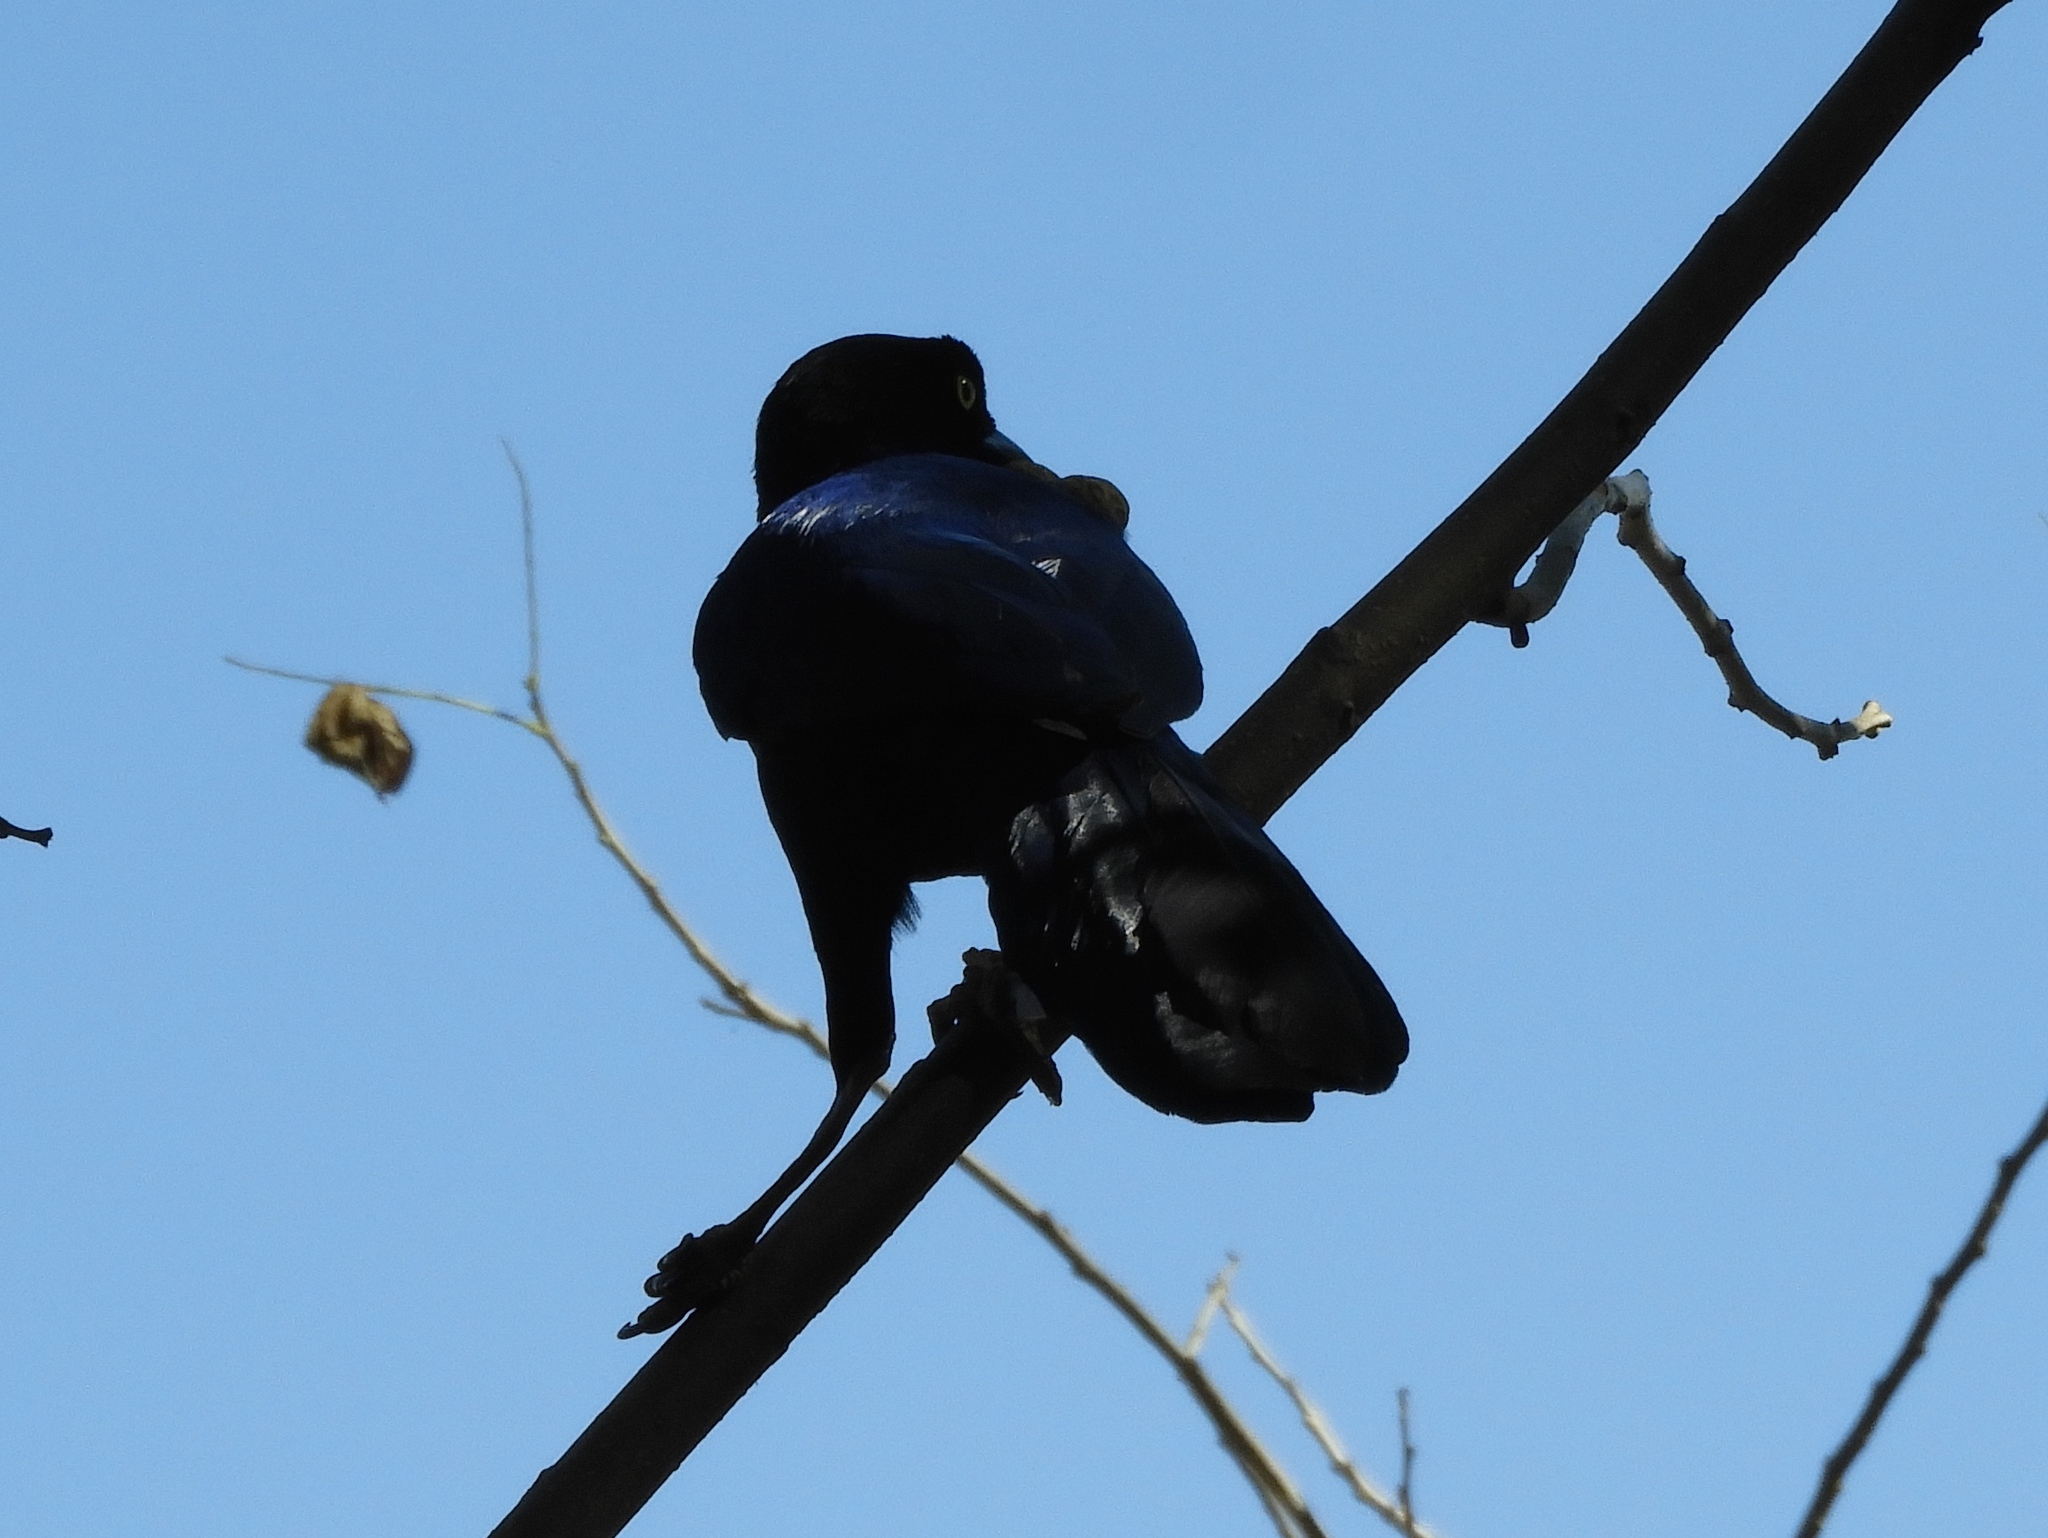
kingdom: Animalia
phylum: Chordata
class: Aves
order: Passeriformes
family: Corvidae
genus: Cyanocorax
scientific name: Cyanocorax beecheii
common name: Purplish-backed jay
